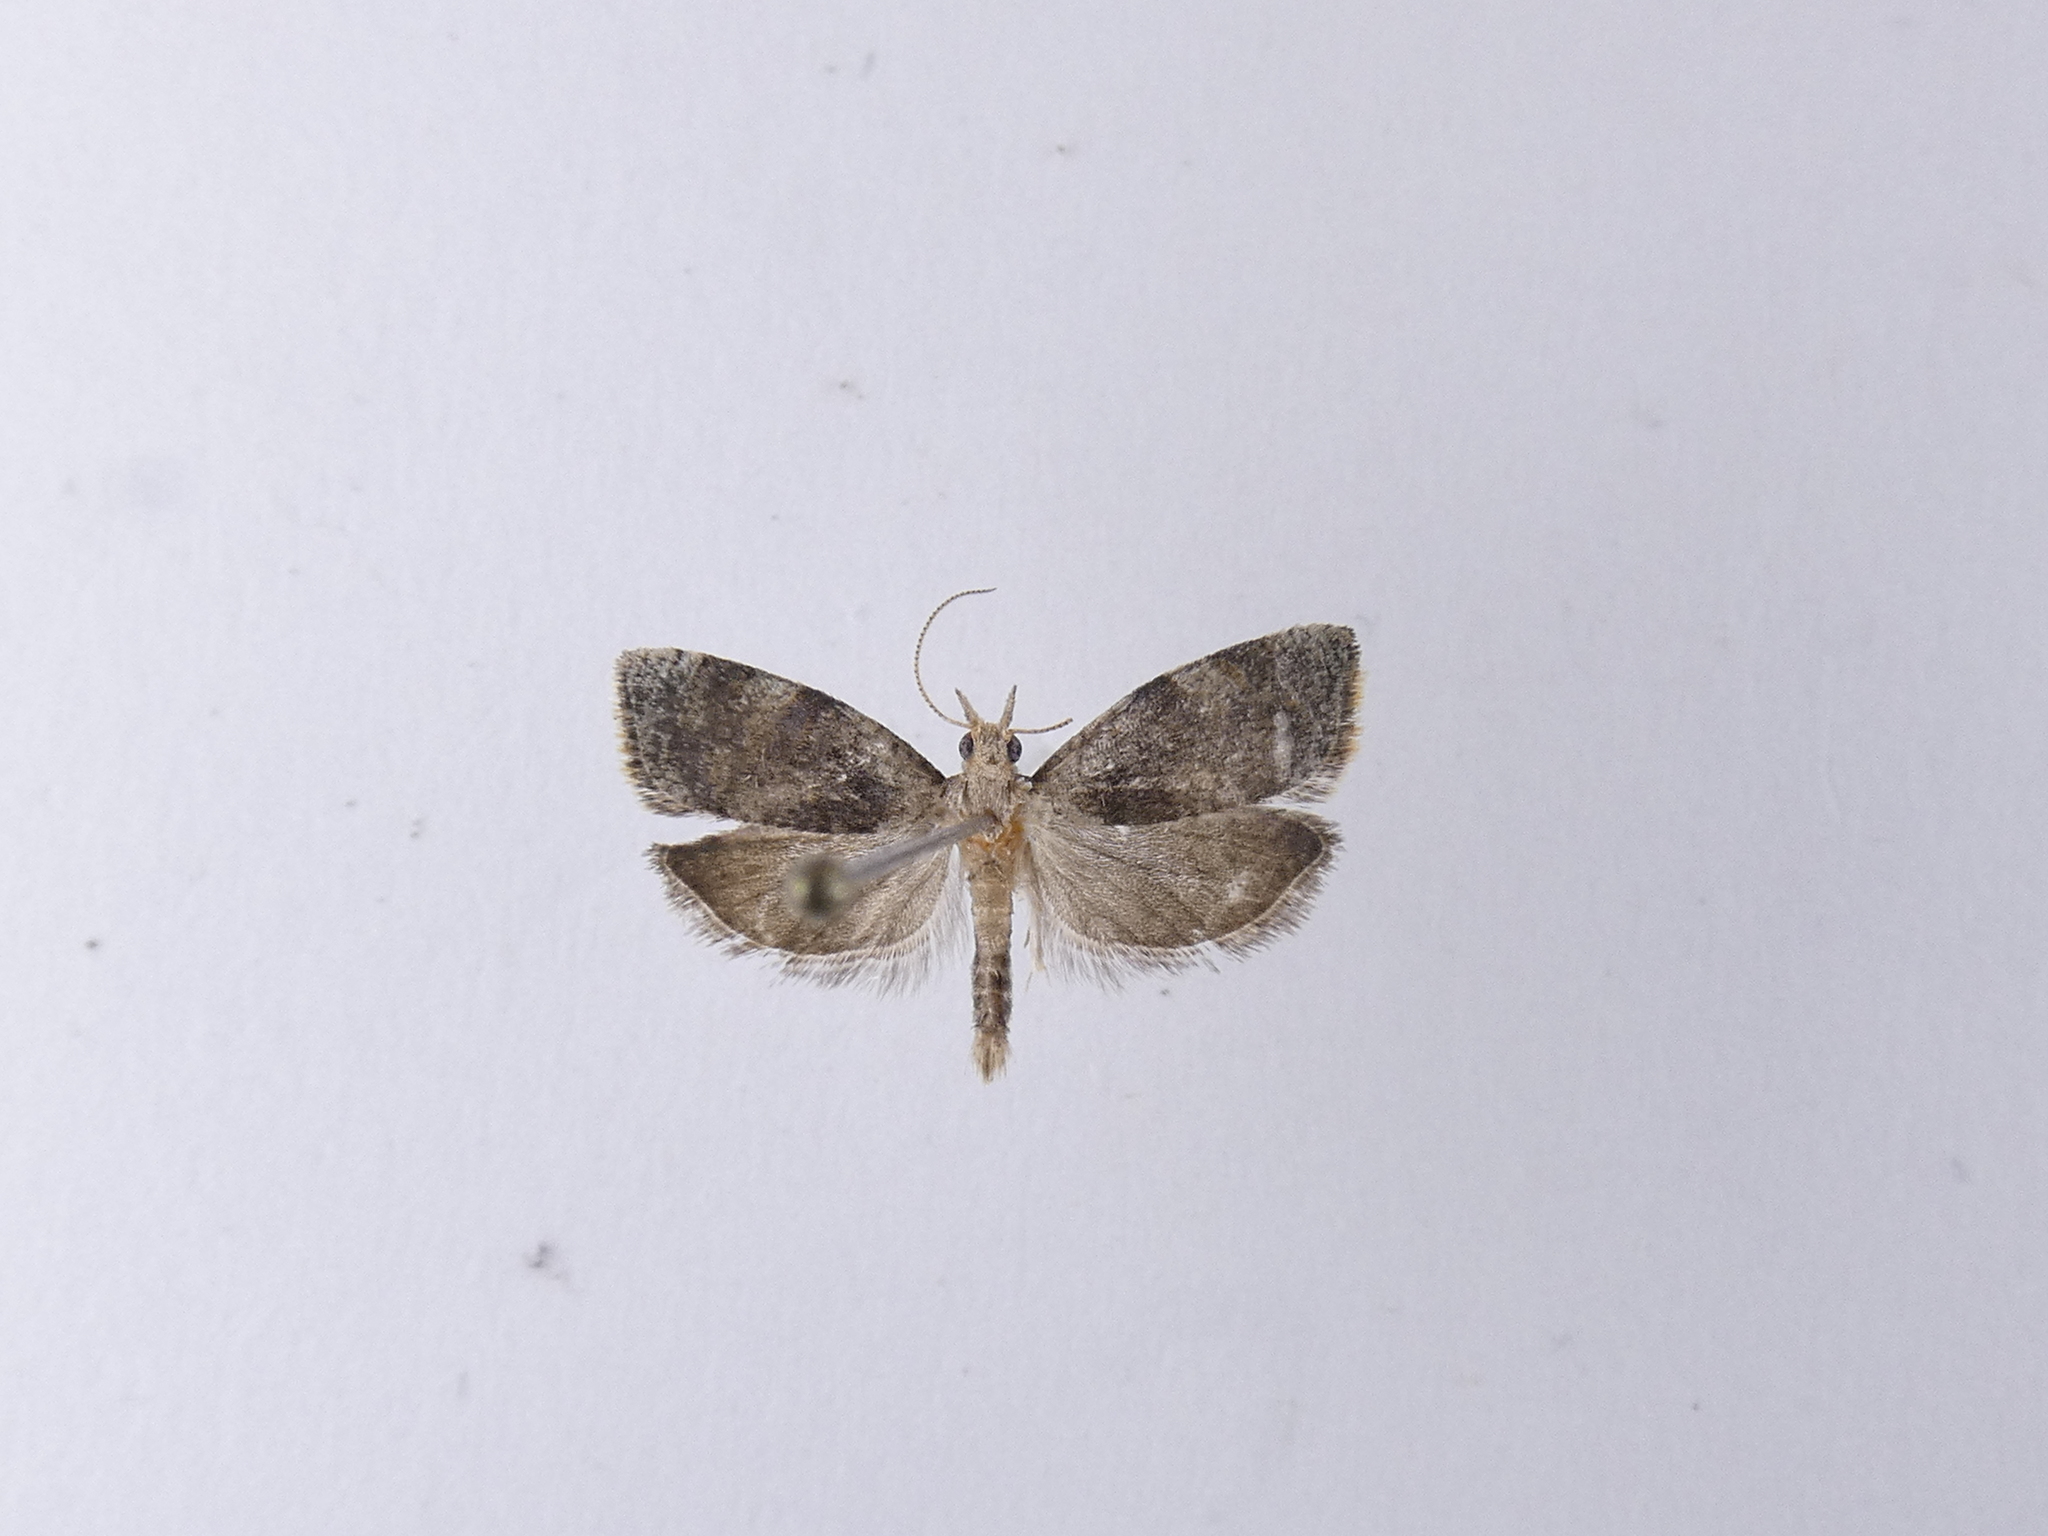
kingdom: Animalia
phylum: Arthropoda
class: Insecta
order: Lepidoptera
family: Tortricidae
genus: Catamacta
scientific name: Catamacta gavisana
